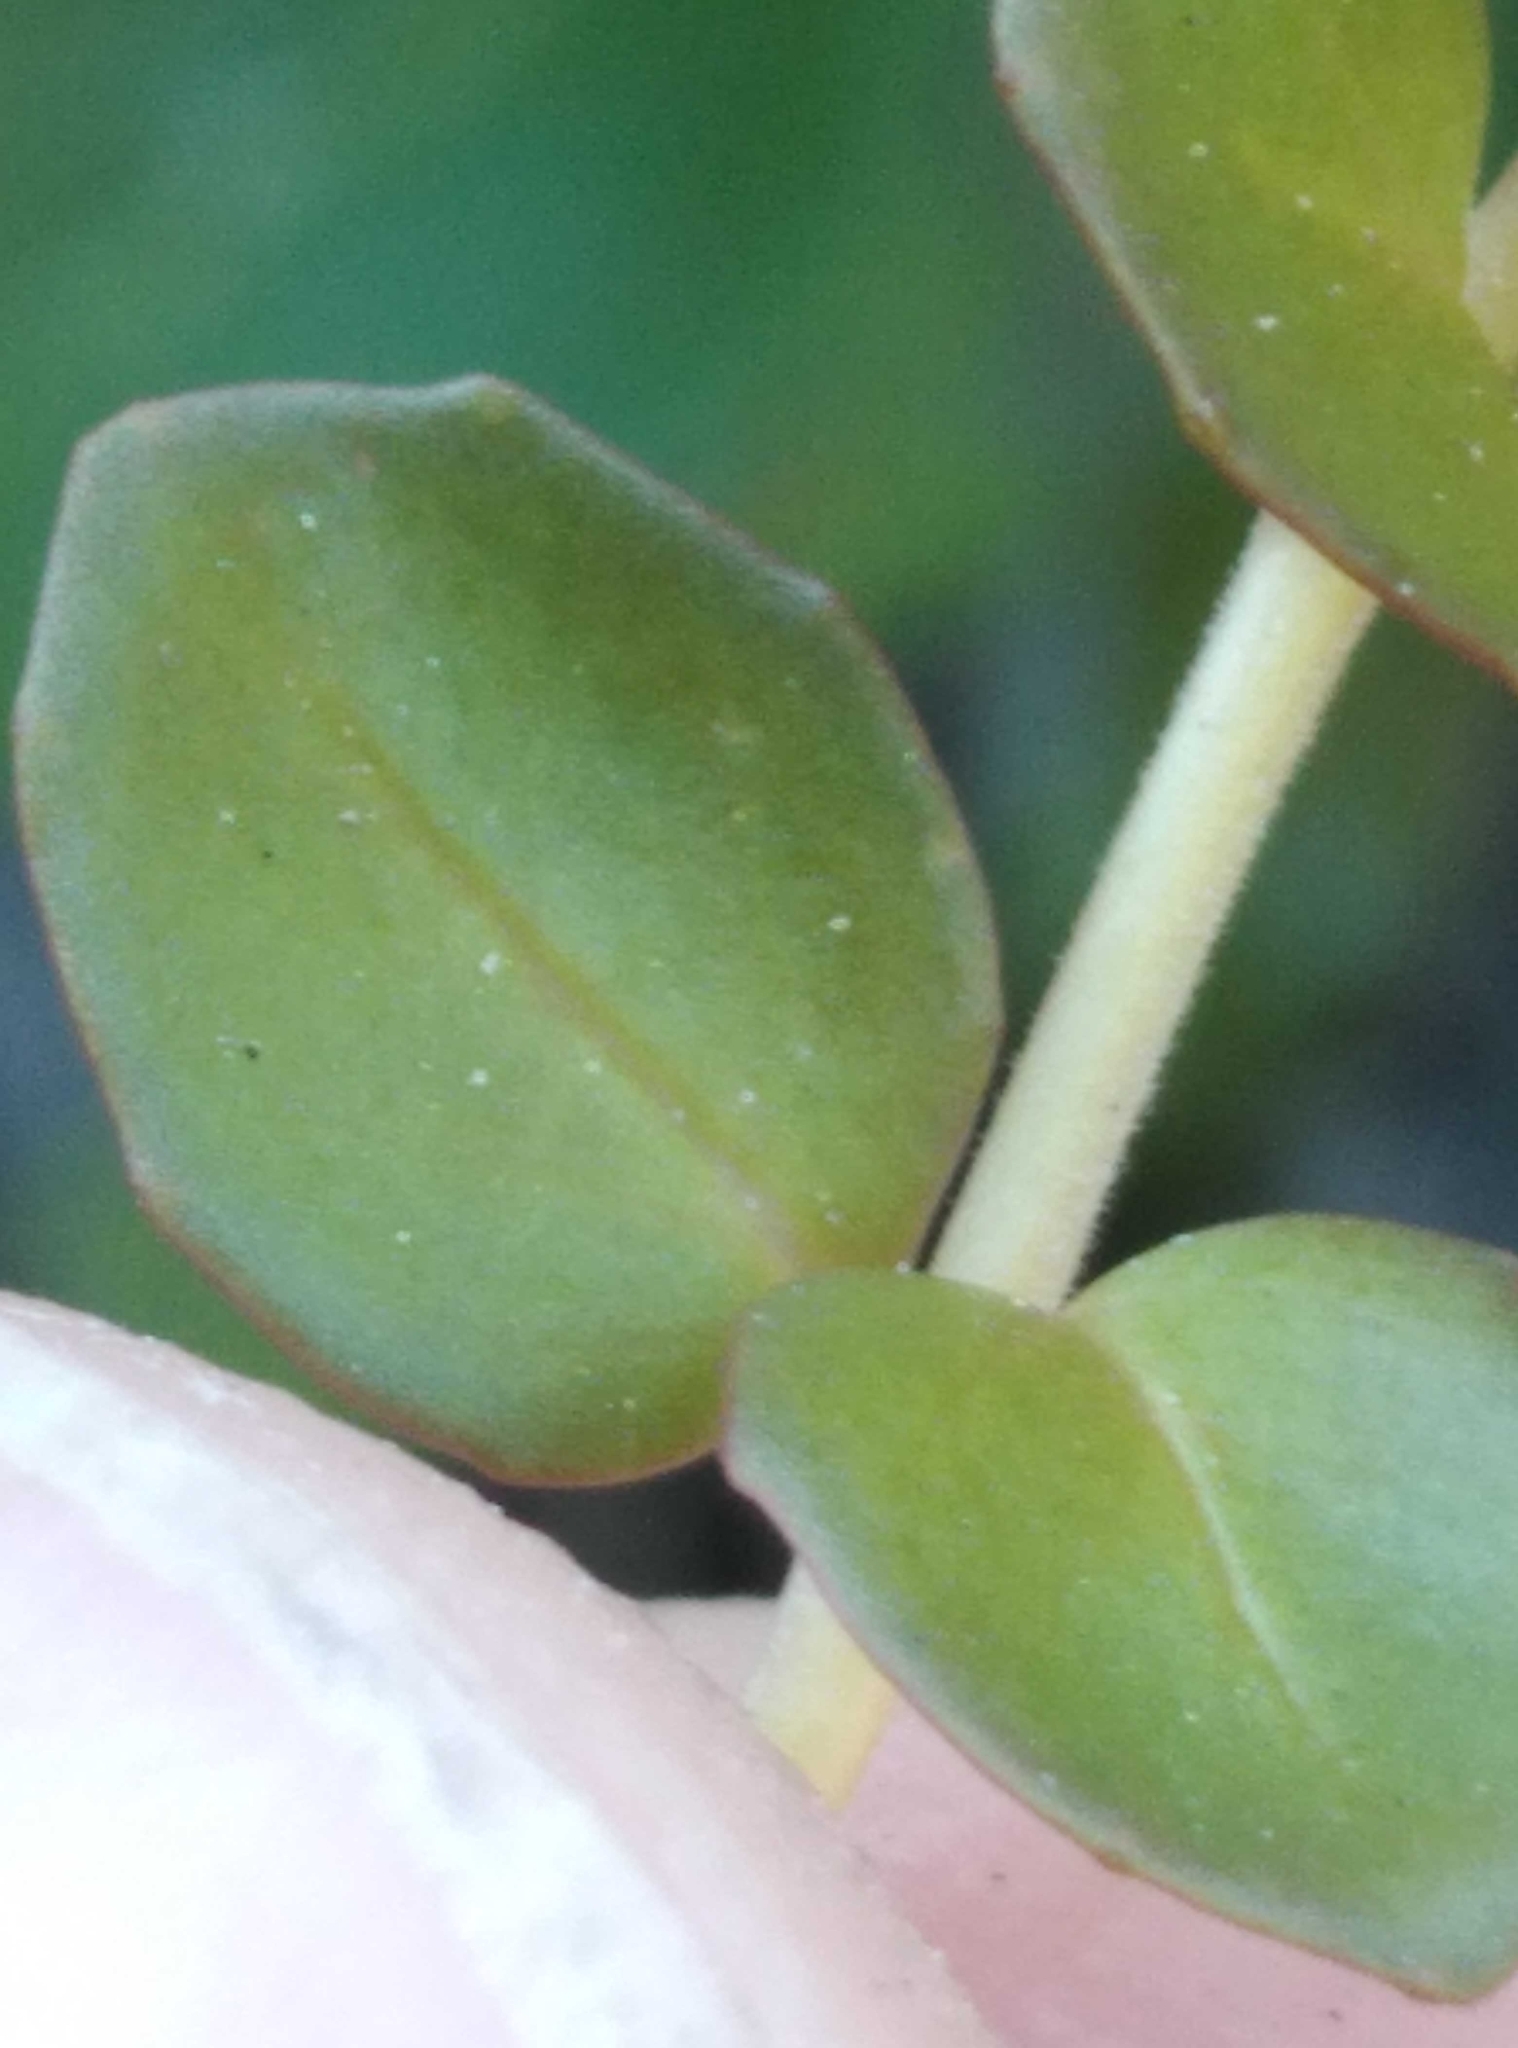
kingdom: Plantae
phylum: Tracheophyta
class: Magnoliopsida
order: Myrtales
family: Onagraceae
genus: Epilobium
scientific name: Epilobium brunnescens
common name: New zealand willowherb
